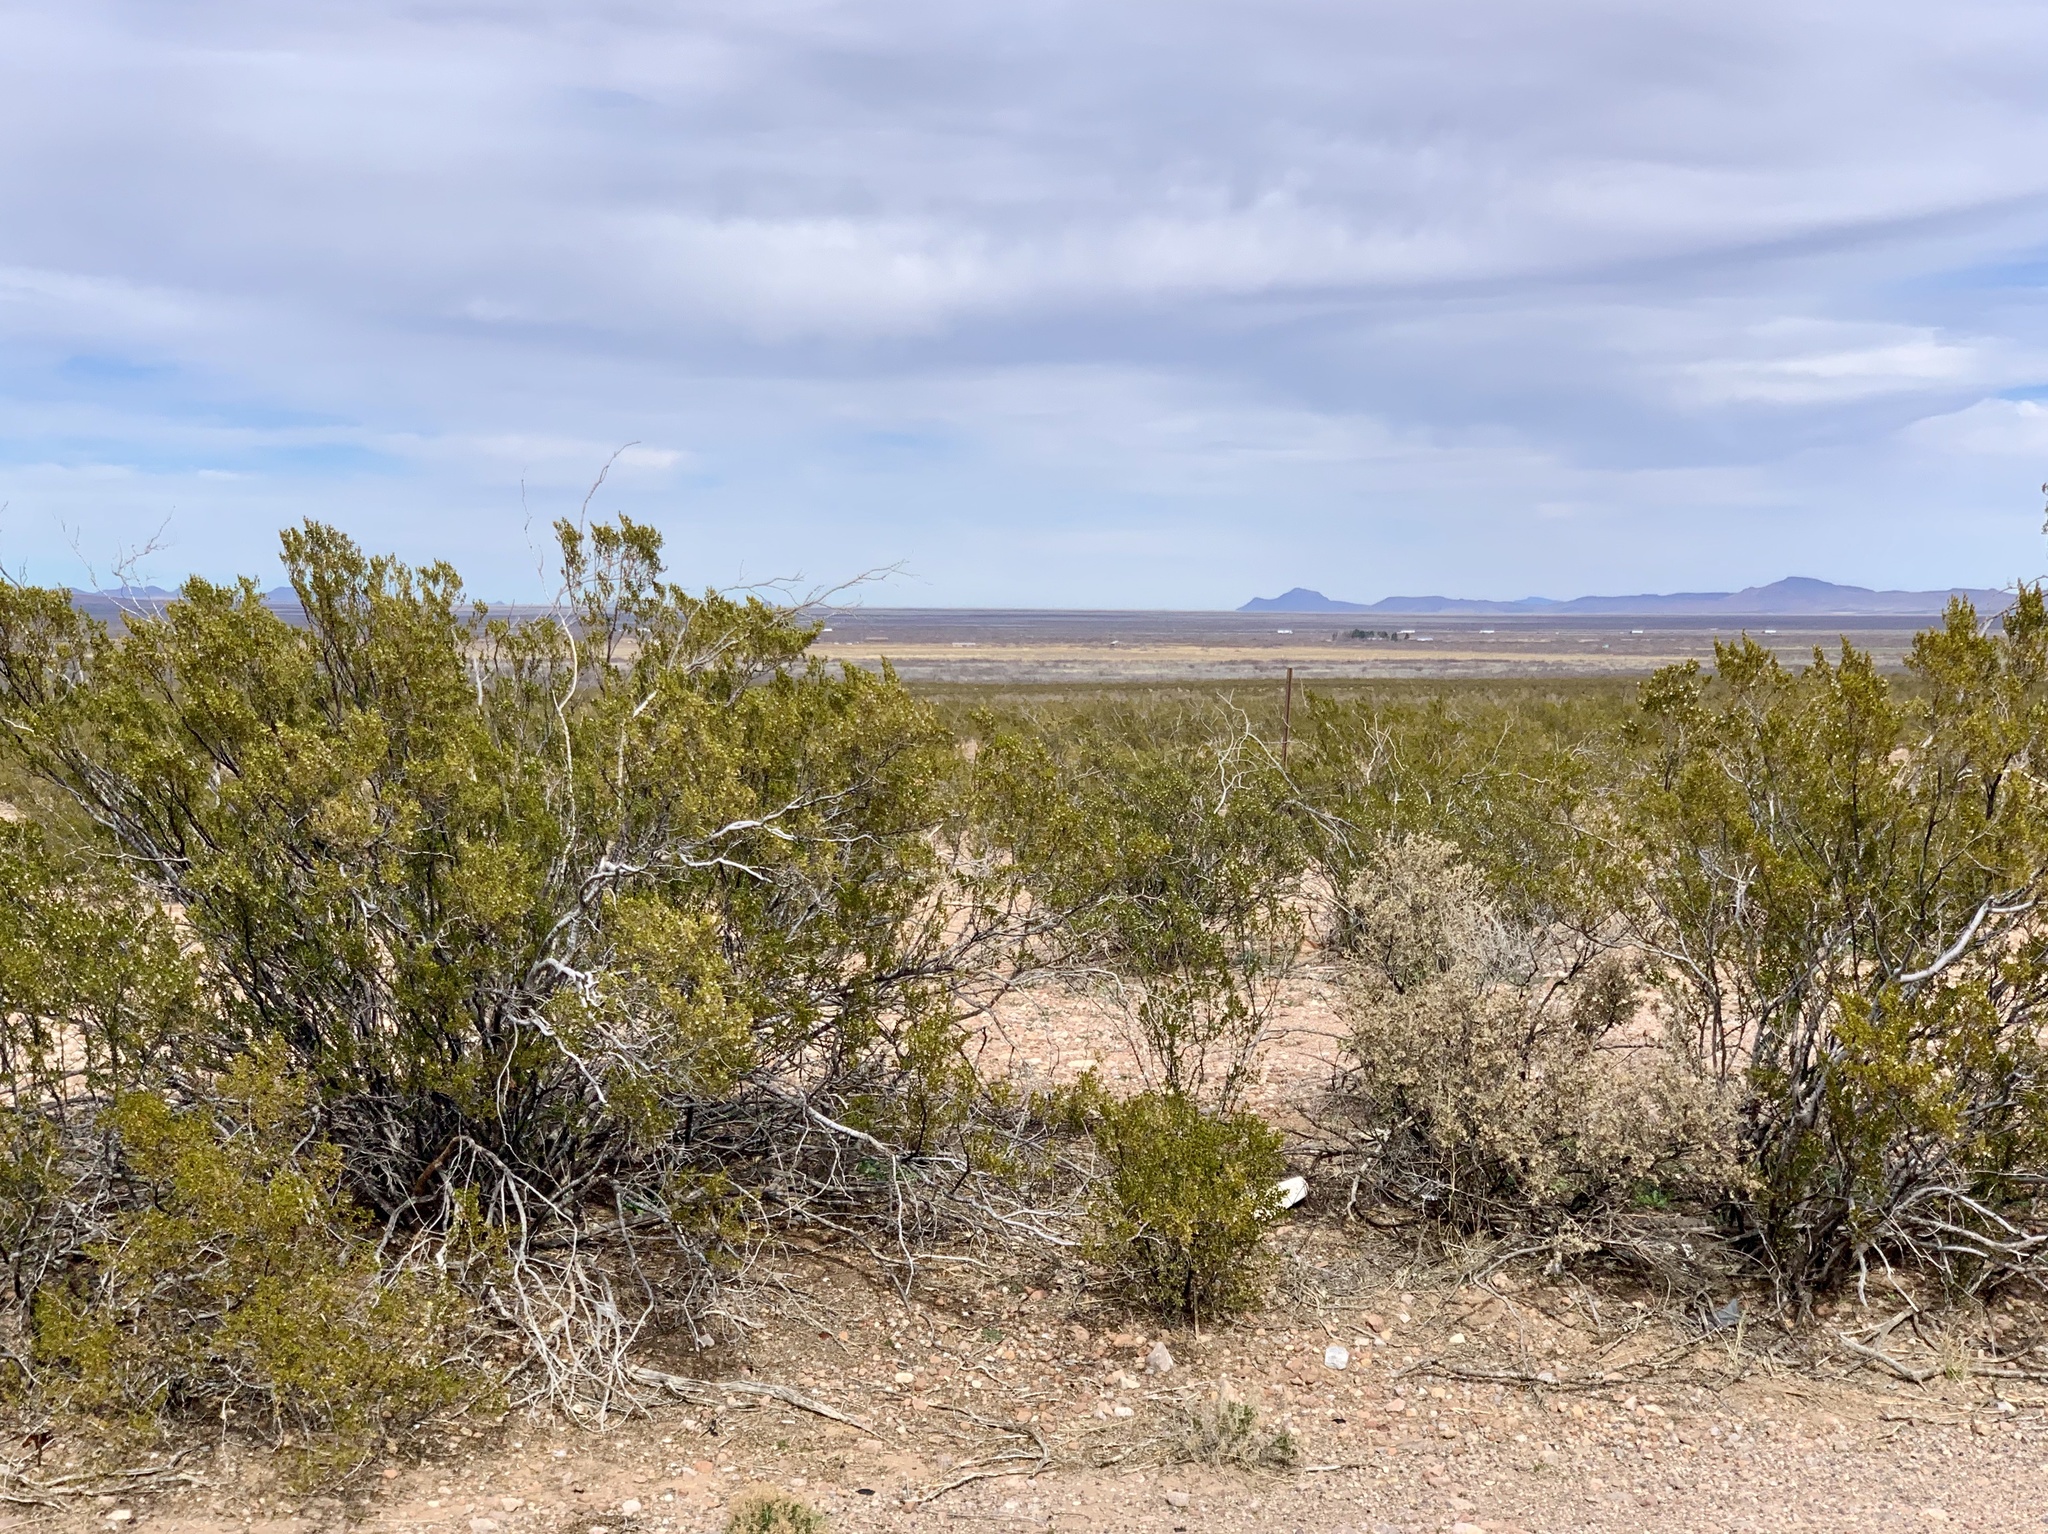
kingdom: Plantae
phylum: Tracheophyta
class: Magnoliopsida
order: Zygophyllales
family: Zygophyllaceae
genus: Larrea
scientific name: Larrea tridentata
